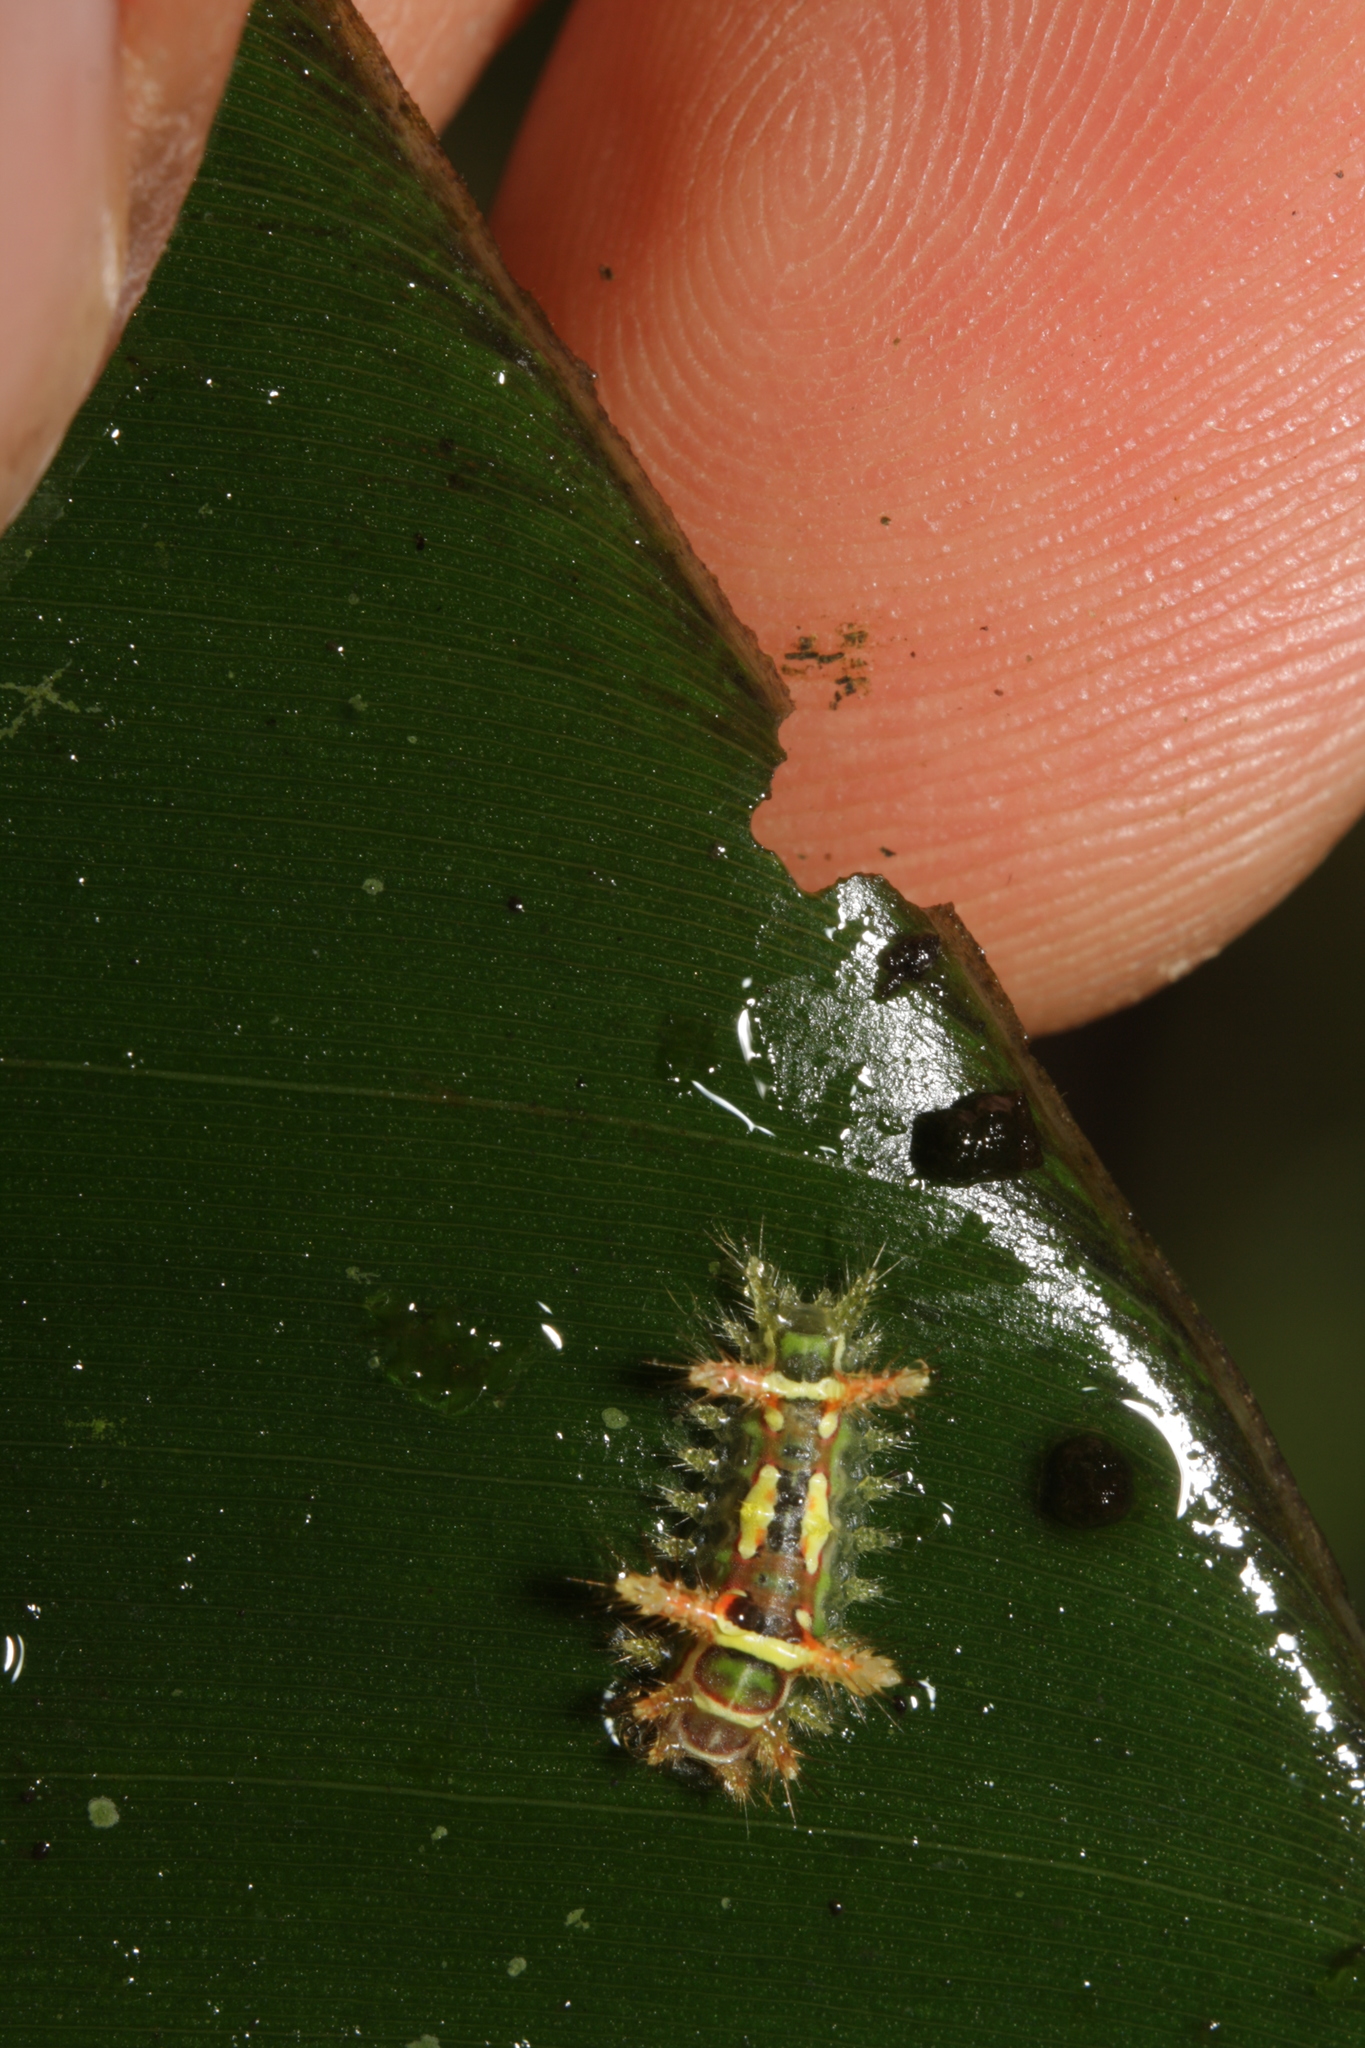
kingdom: Animalia
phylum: Arthropoda
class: Insecta
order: Lepidoptera
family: Limacodidae
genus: Talima
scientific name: Talima beckeri
